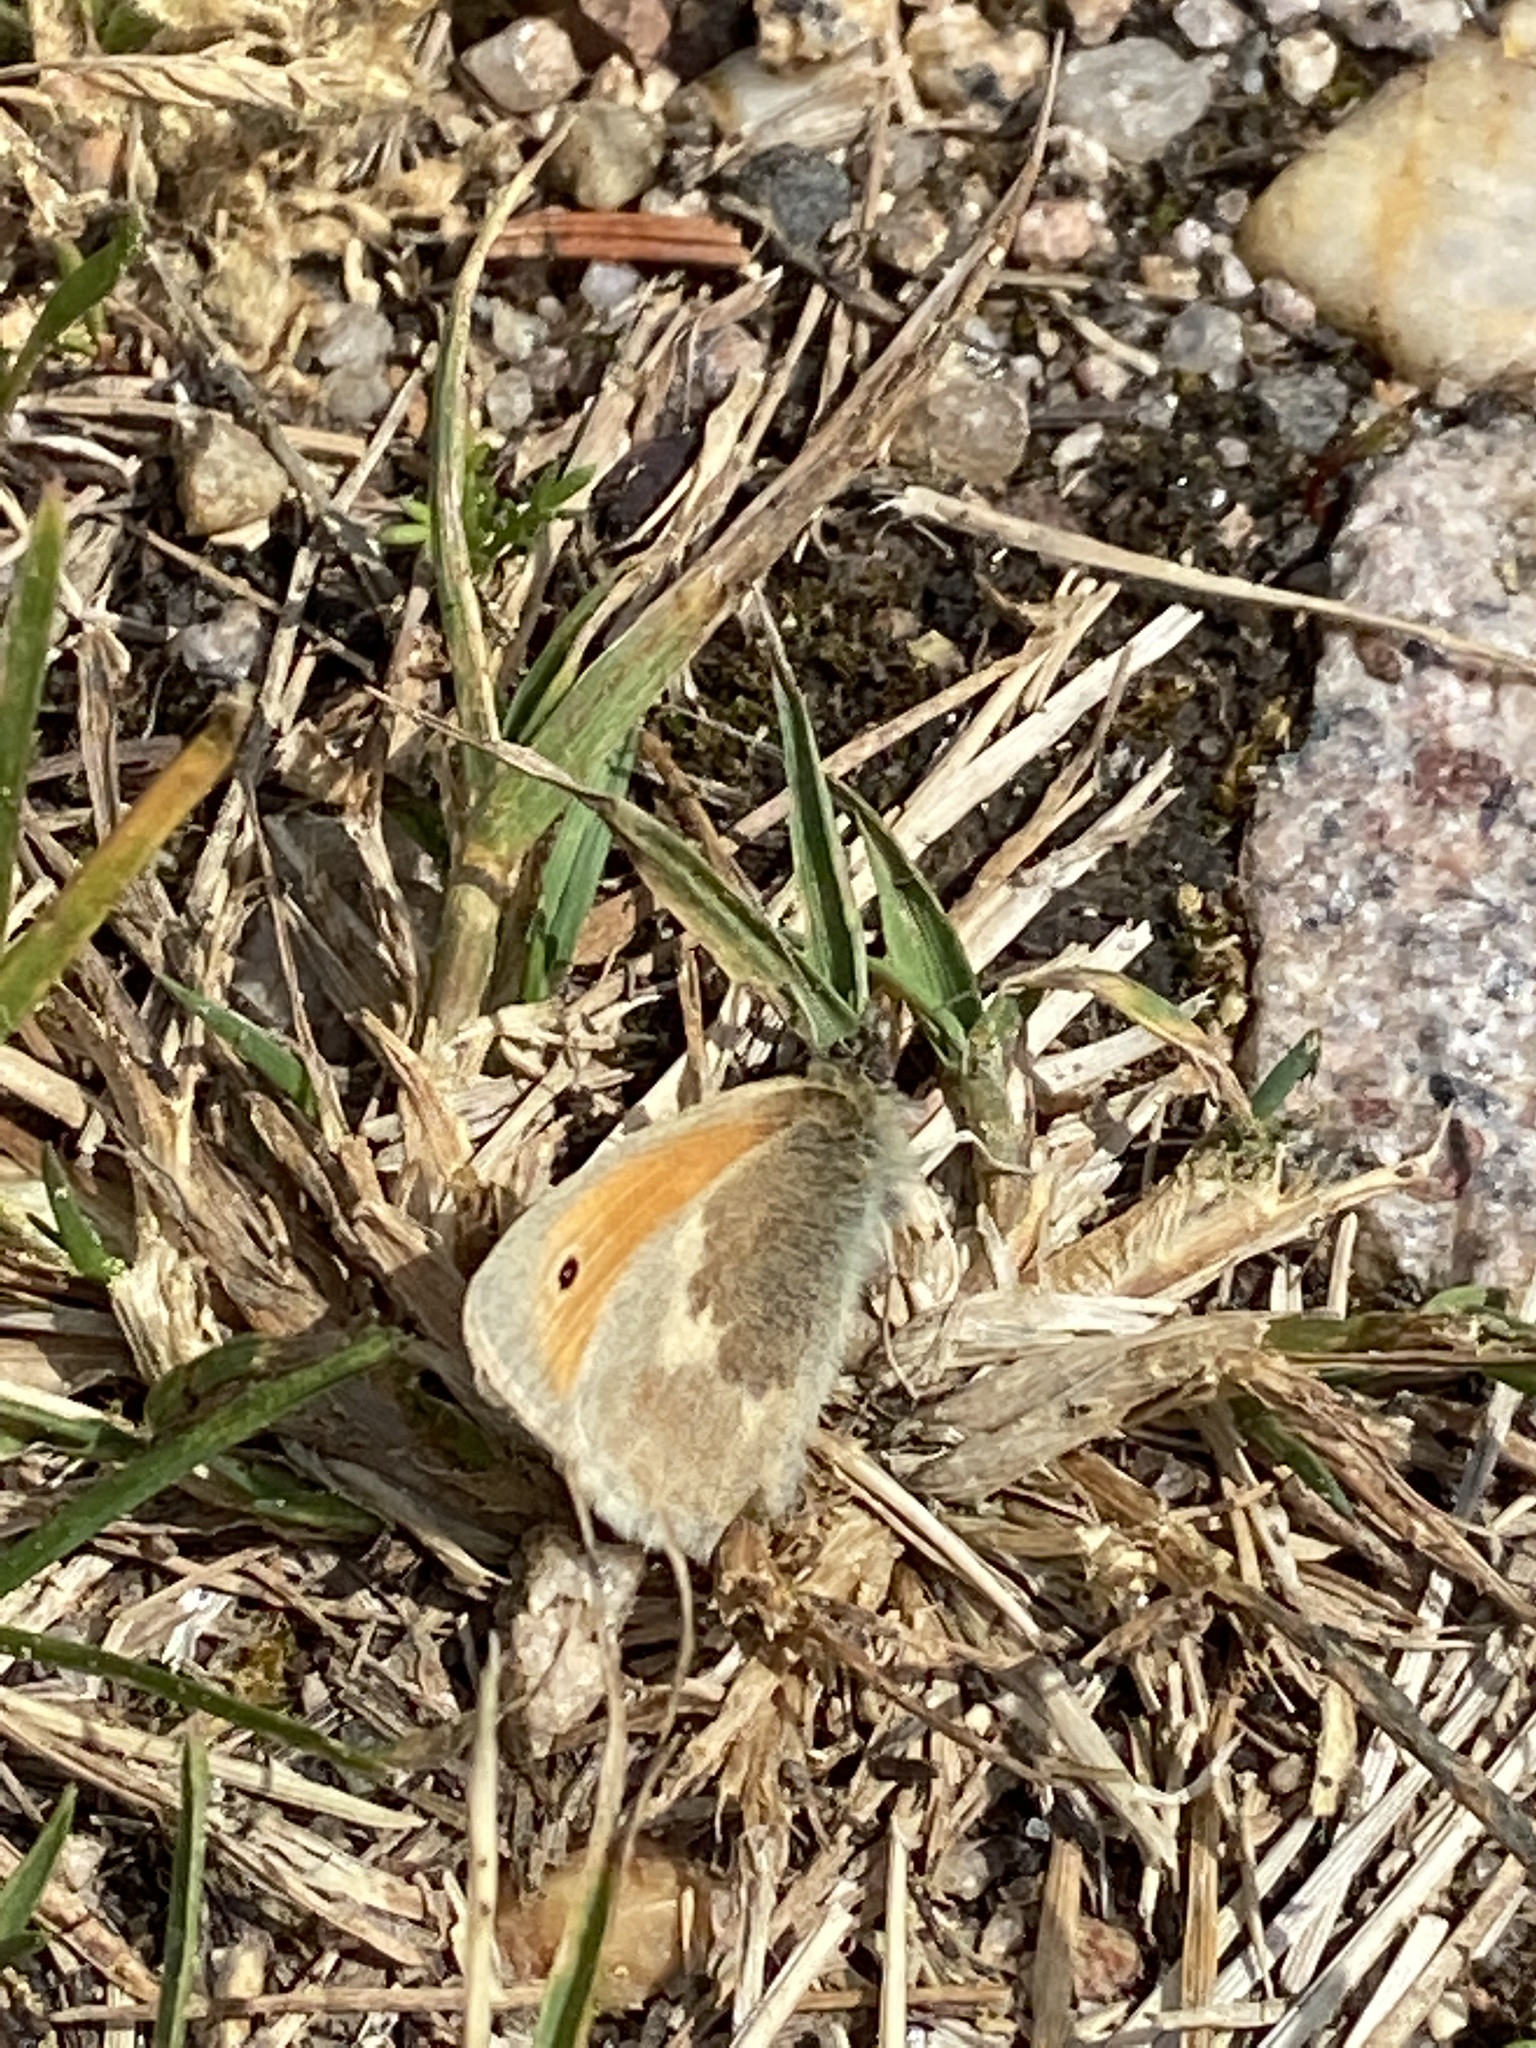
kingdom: Animalia
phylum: Arthropoda
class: Insecta
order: Lepidoptera
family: Nymphalidae
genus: Coenonympha
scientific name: Coenonympha pamphilus
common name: Small heath
